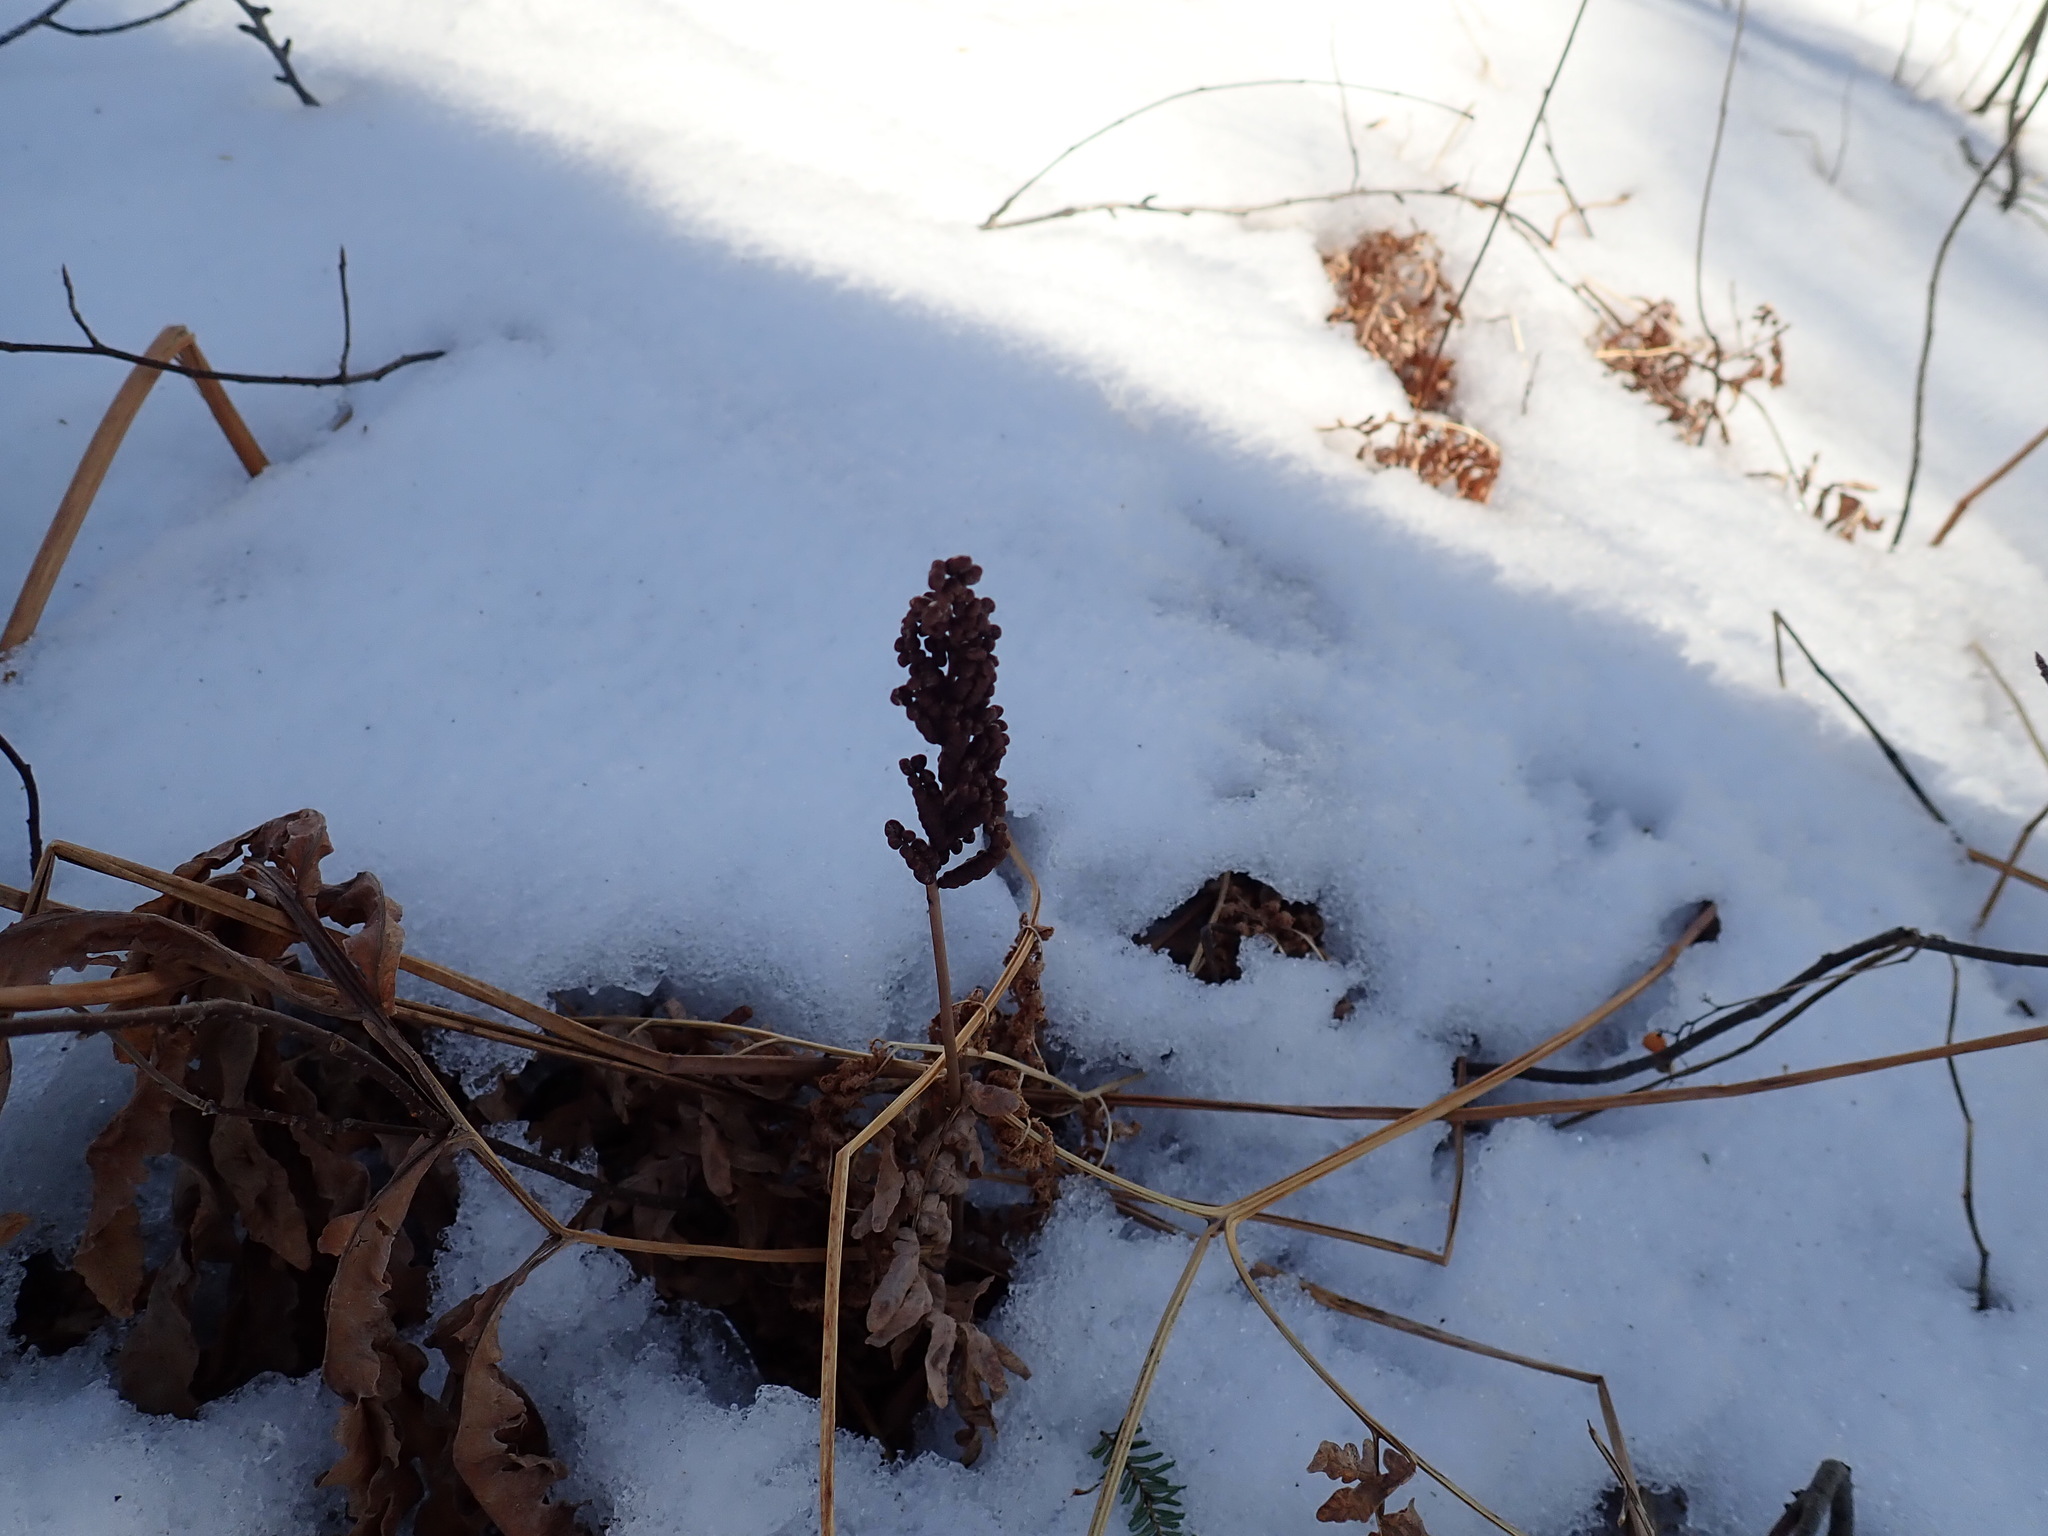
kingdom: Plantae
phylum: Tracheophyta
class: Polypodiopsida
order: Polypodiales
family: Onocleaceae
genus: Onoclea
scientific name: Onoclea sensibilis
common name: Sensitive fern
